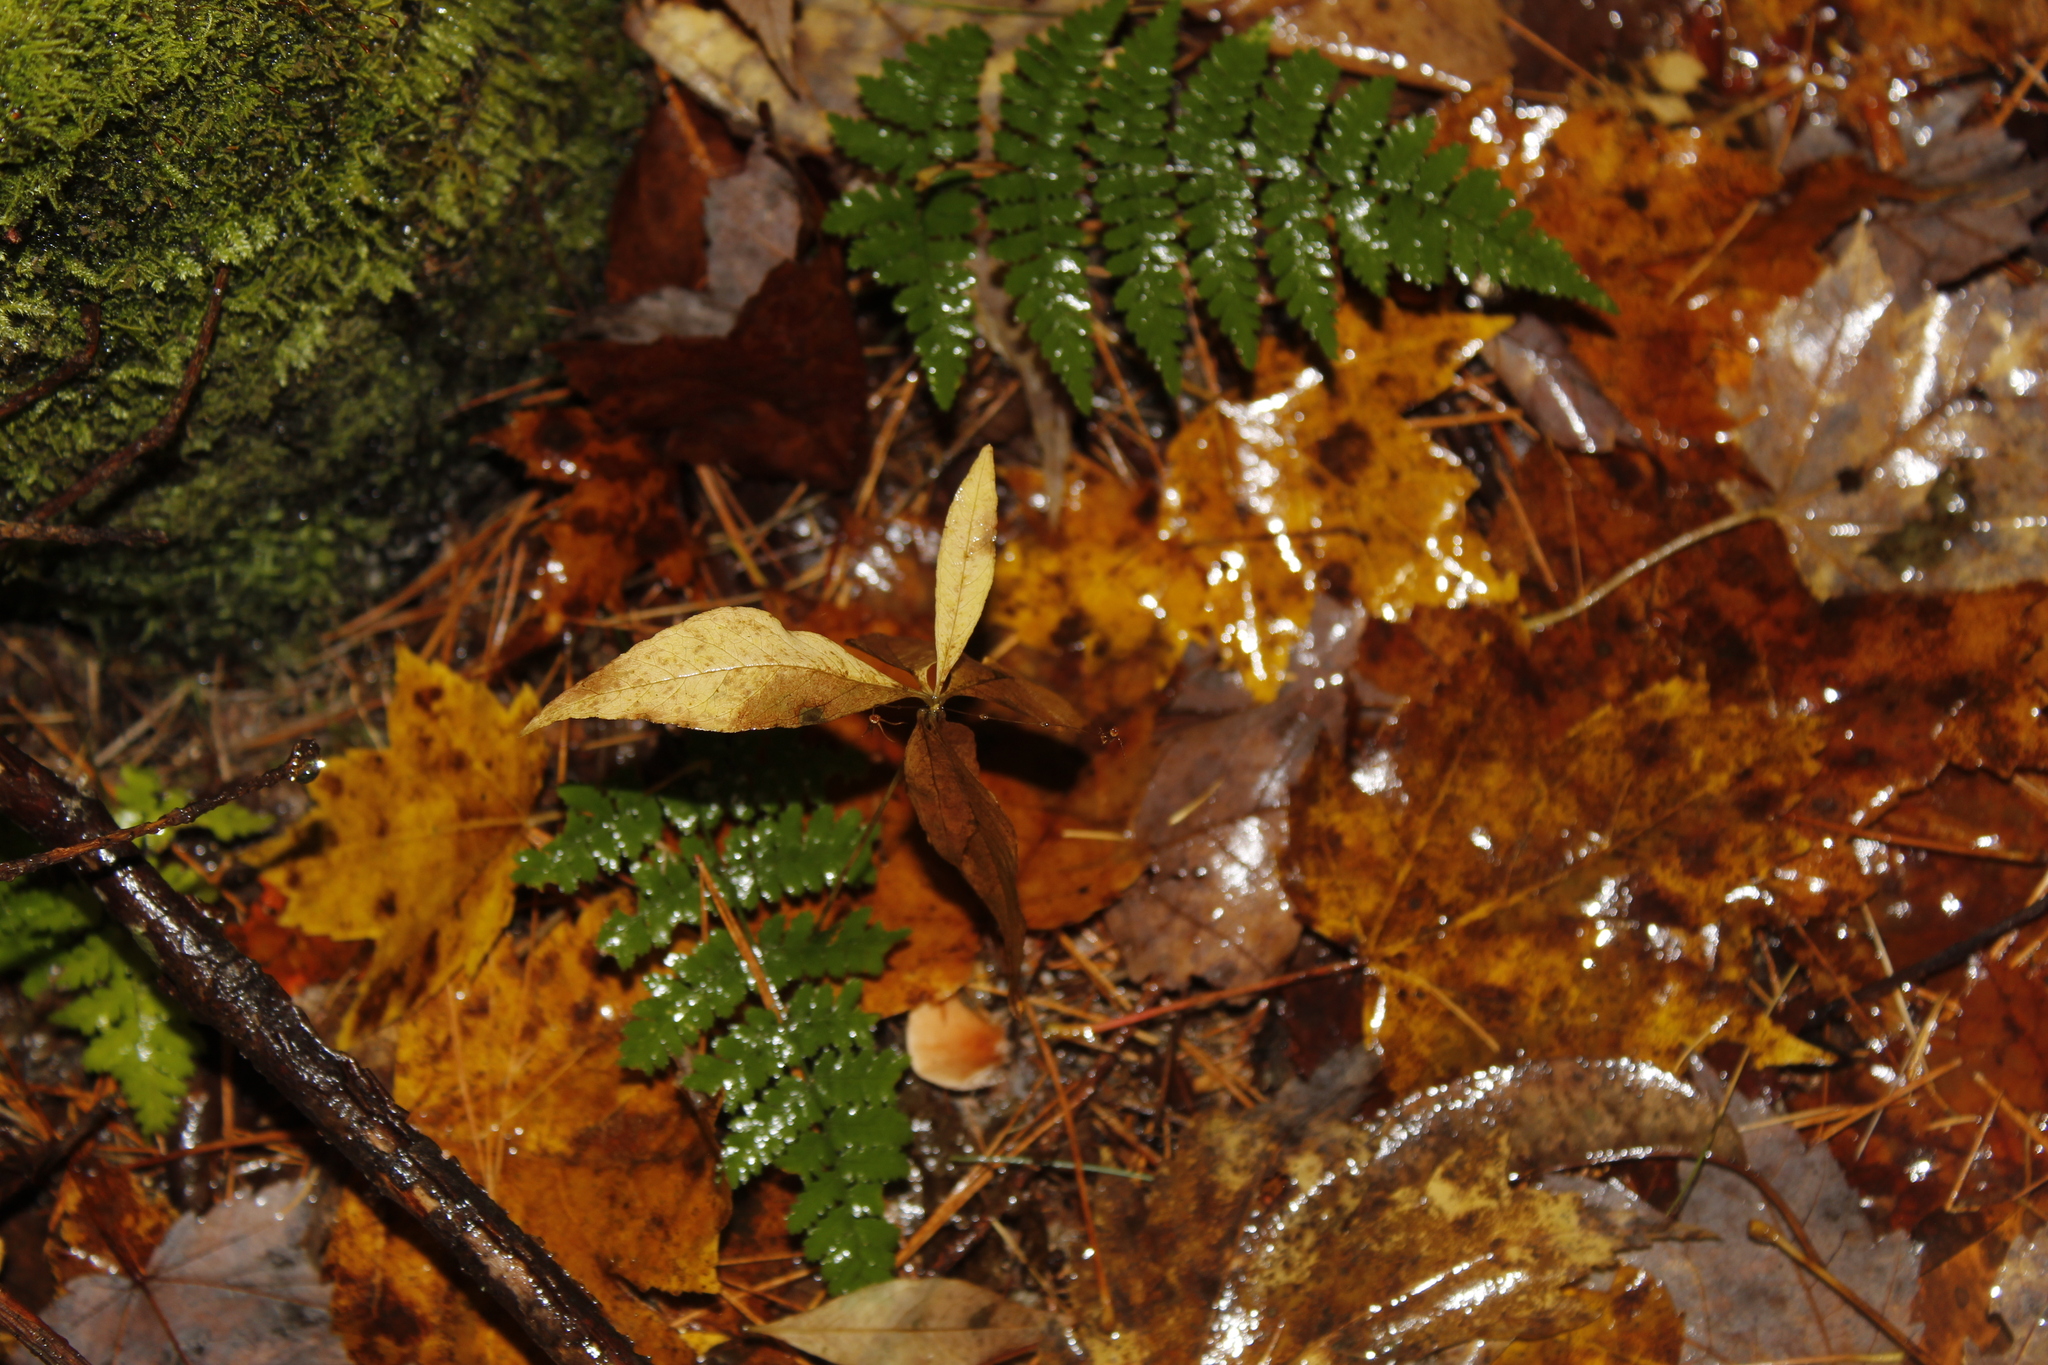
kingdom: Plantae
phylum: Tracheophyta
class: Polypodiopsida
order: Polypodiales
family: Dryopteridaceae
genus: Dryopteris
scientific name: Dryopteris
